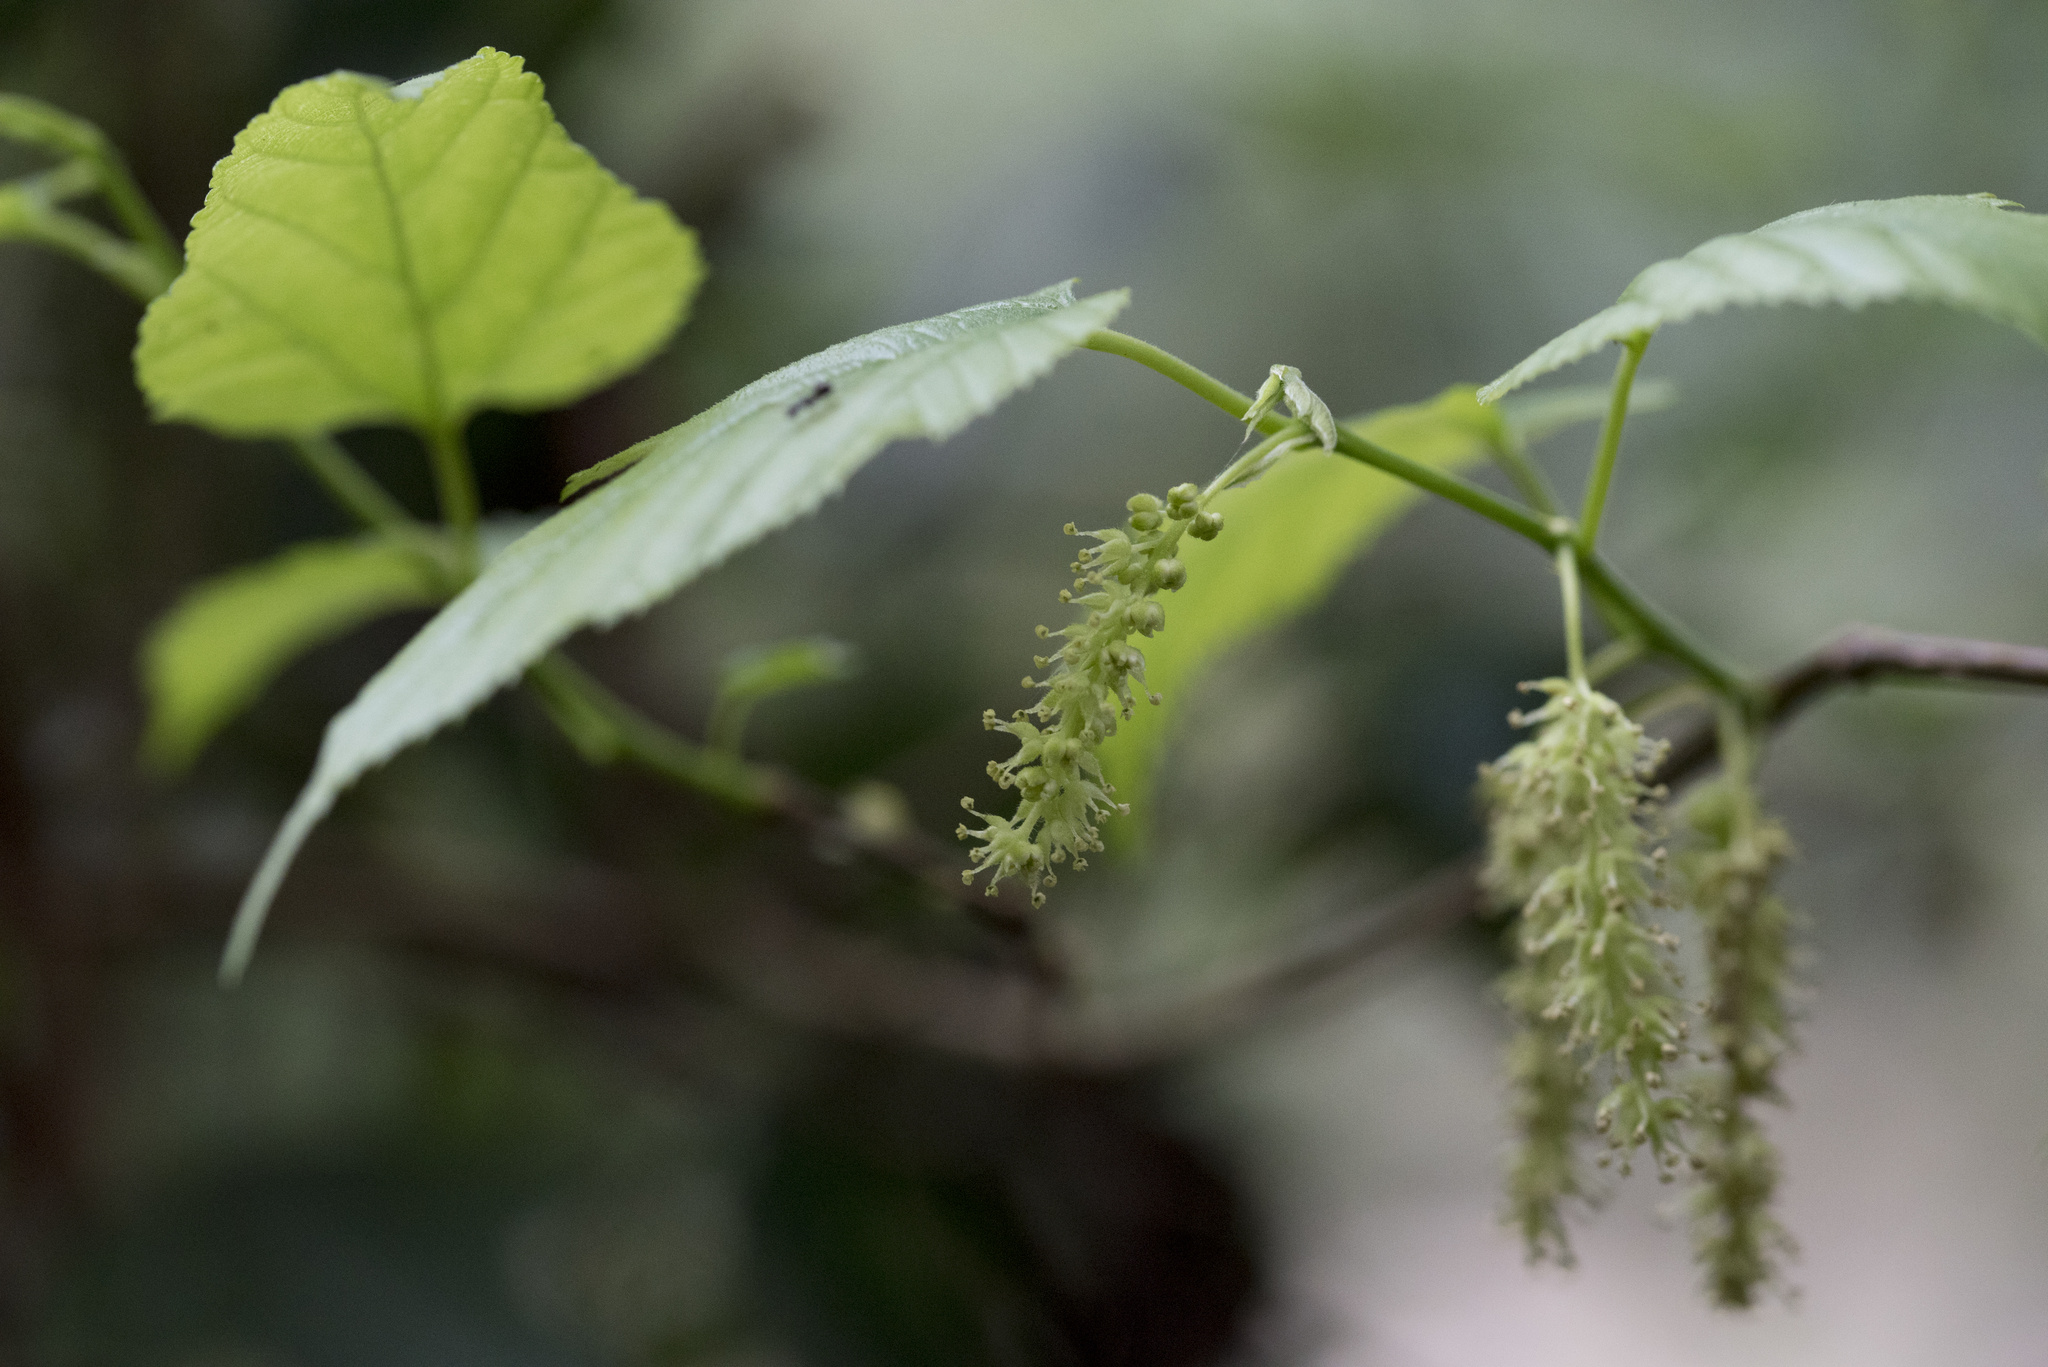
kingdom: Plantae
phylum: Tracheophyta
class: Magnoliopsida
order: Rosales
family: Moraceae
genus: Morus
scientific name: Morus indica
